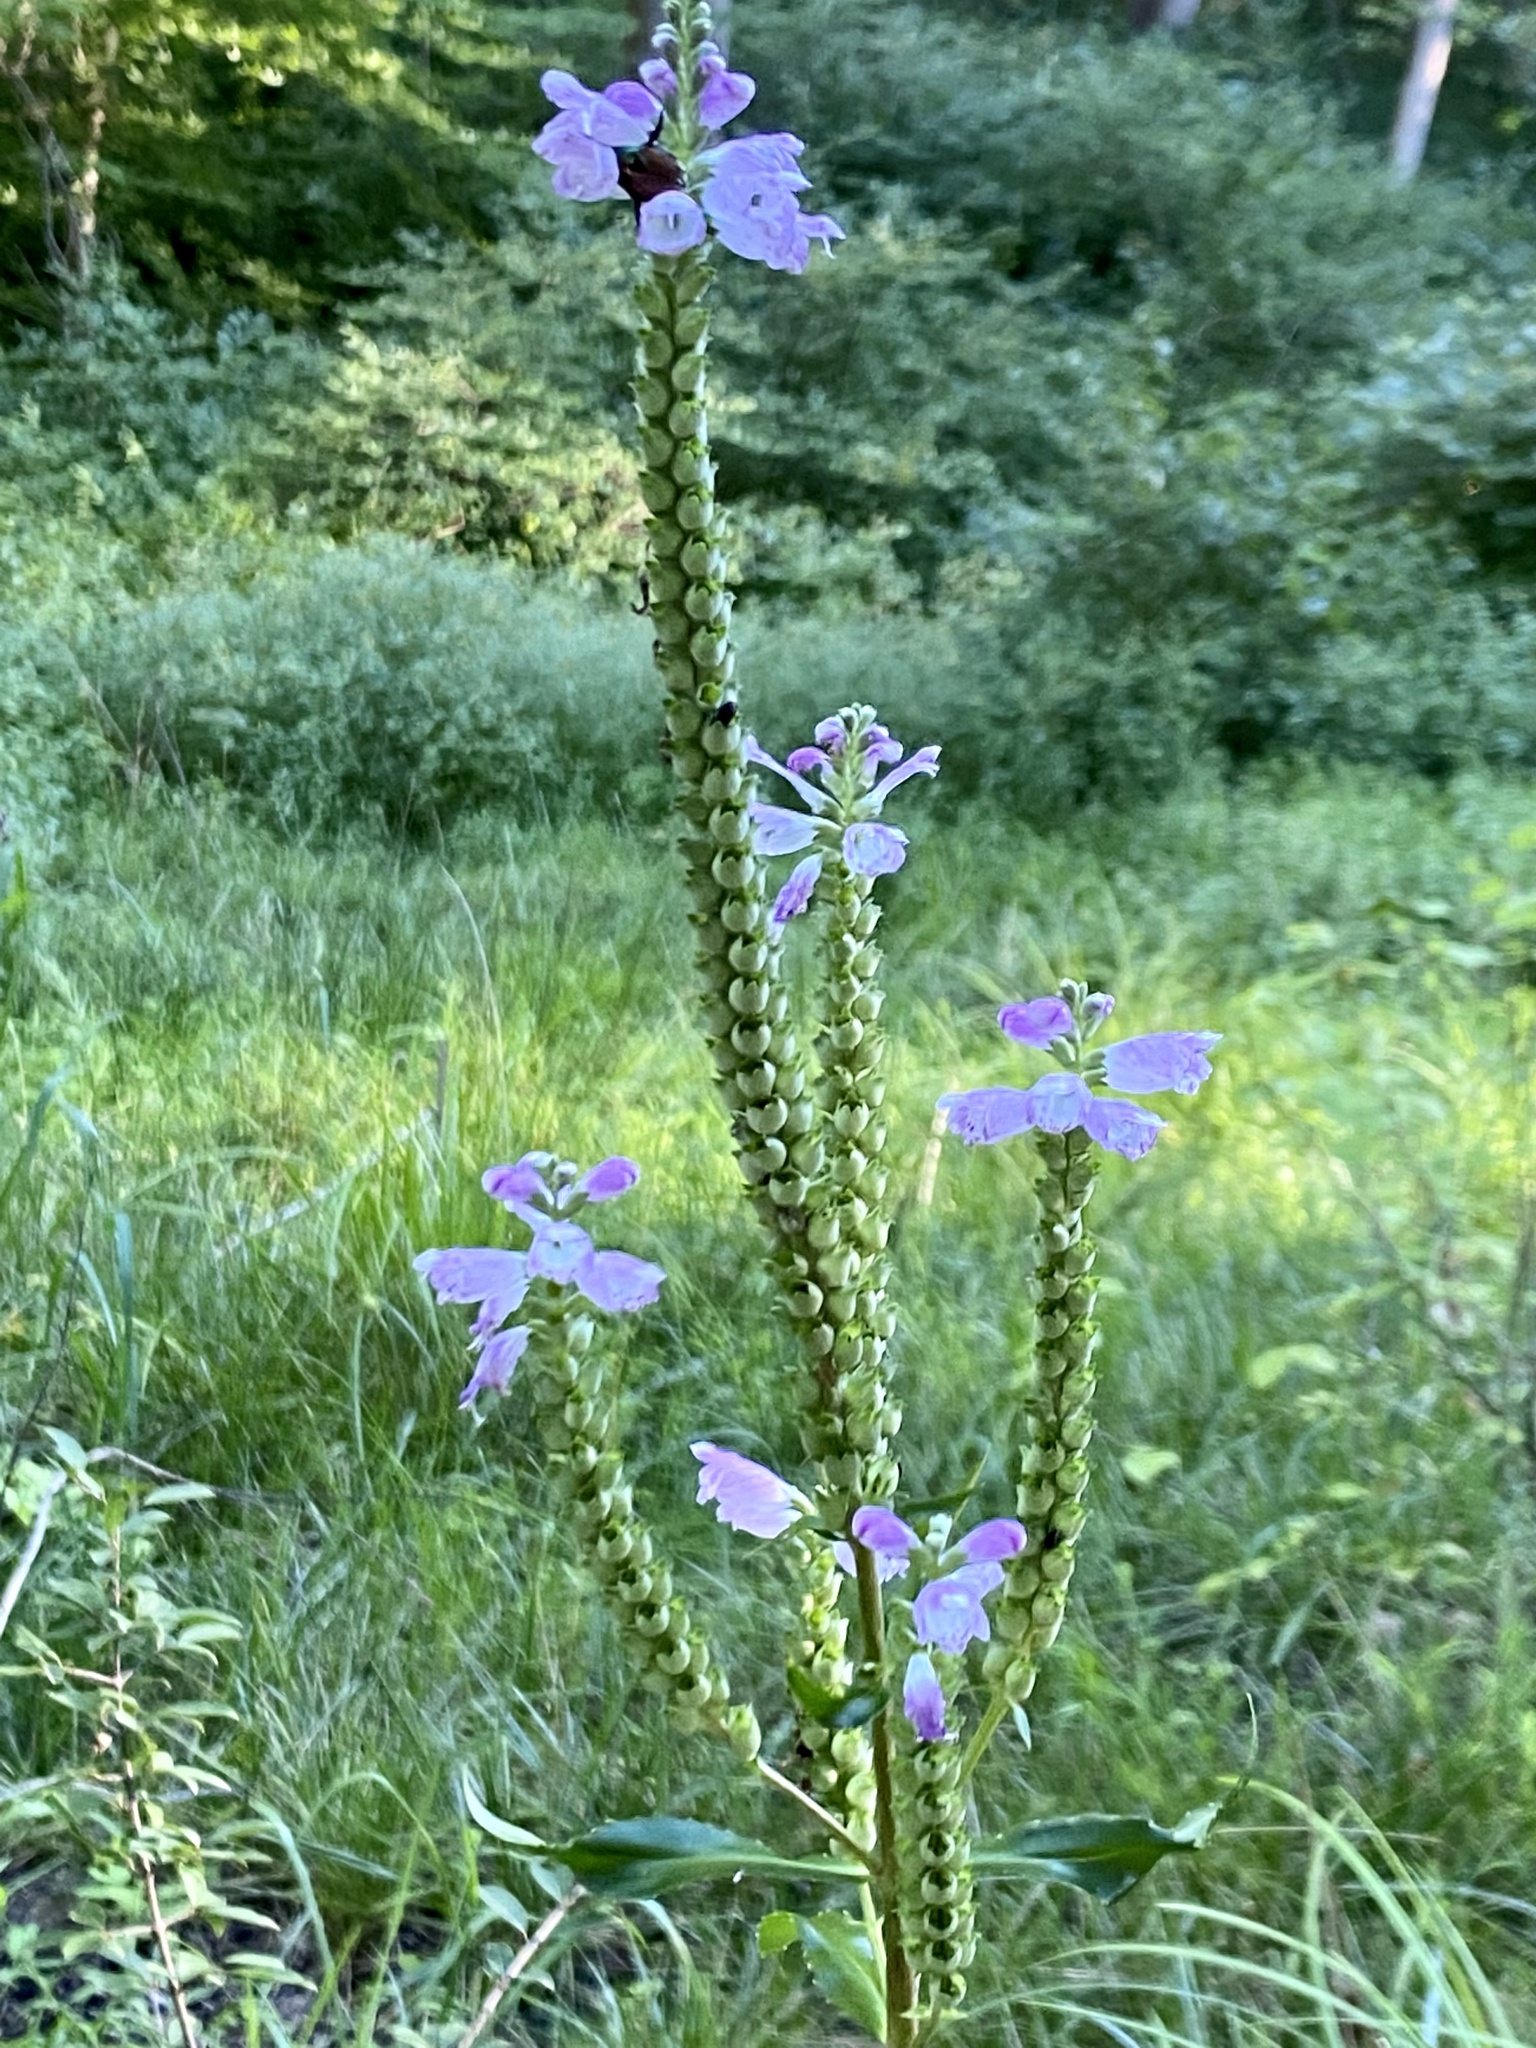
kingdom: Plantae
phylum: Tracheophyta
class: Magnoliopsida
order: Lamiales
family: Lamiaceae
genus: Physostegia
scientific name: Physostegia virginiana
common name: Obedient-plant
